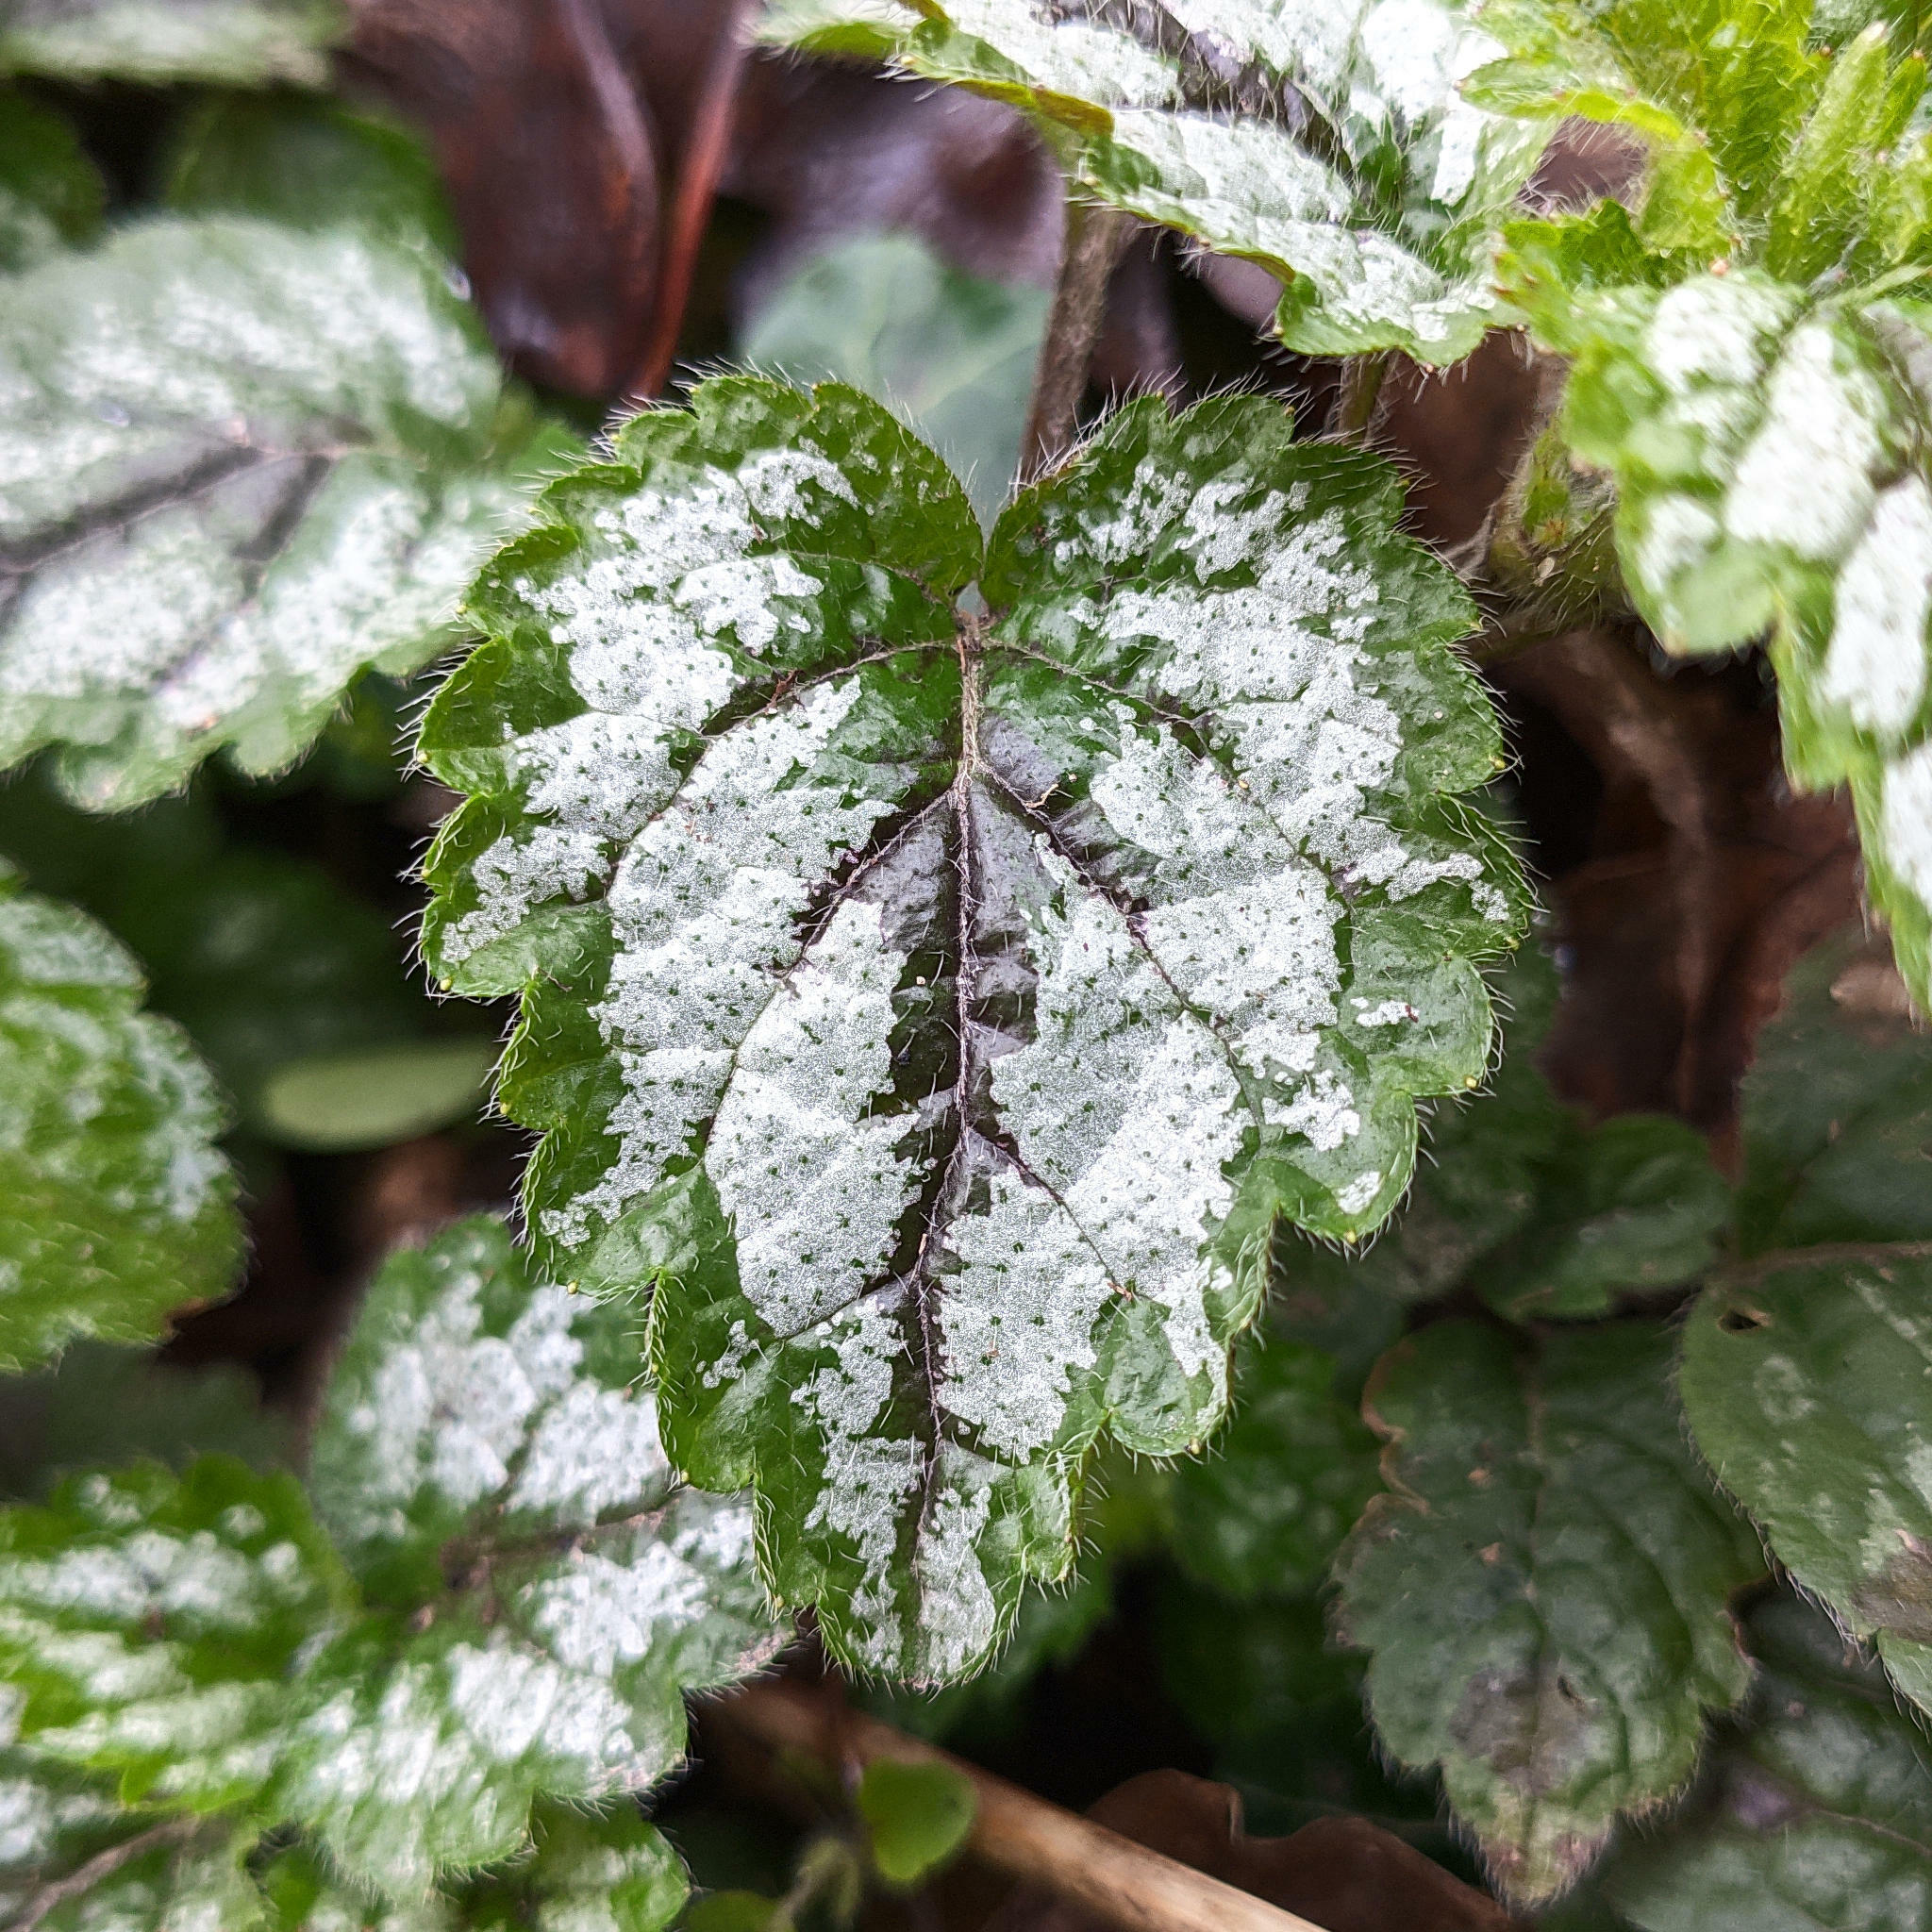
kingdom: Plantae
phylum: Tracheophyta
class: Magnoliopsida
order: Lamiales
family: Lamiaceae
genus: Lamium
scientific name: Lamium galeobdolon
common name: Yellow archangel
